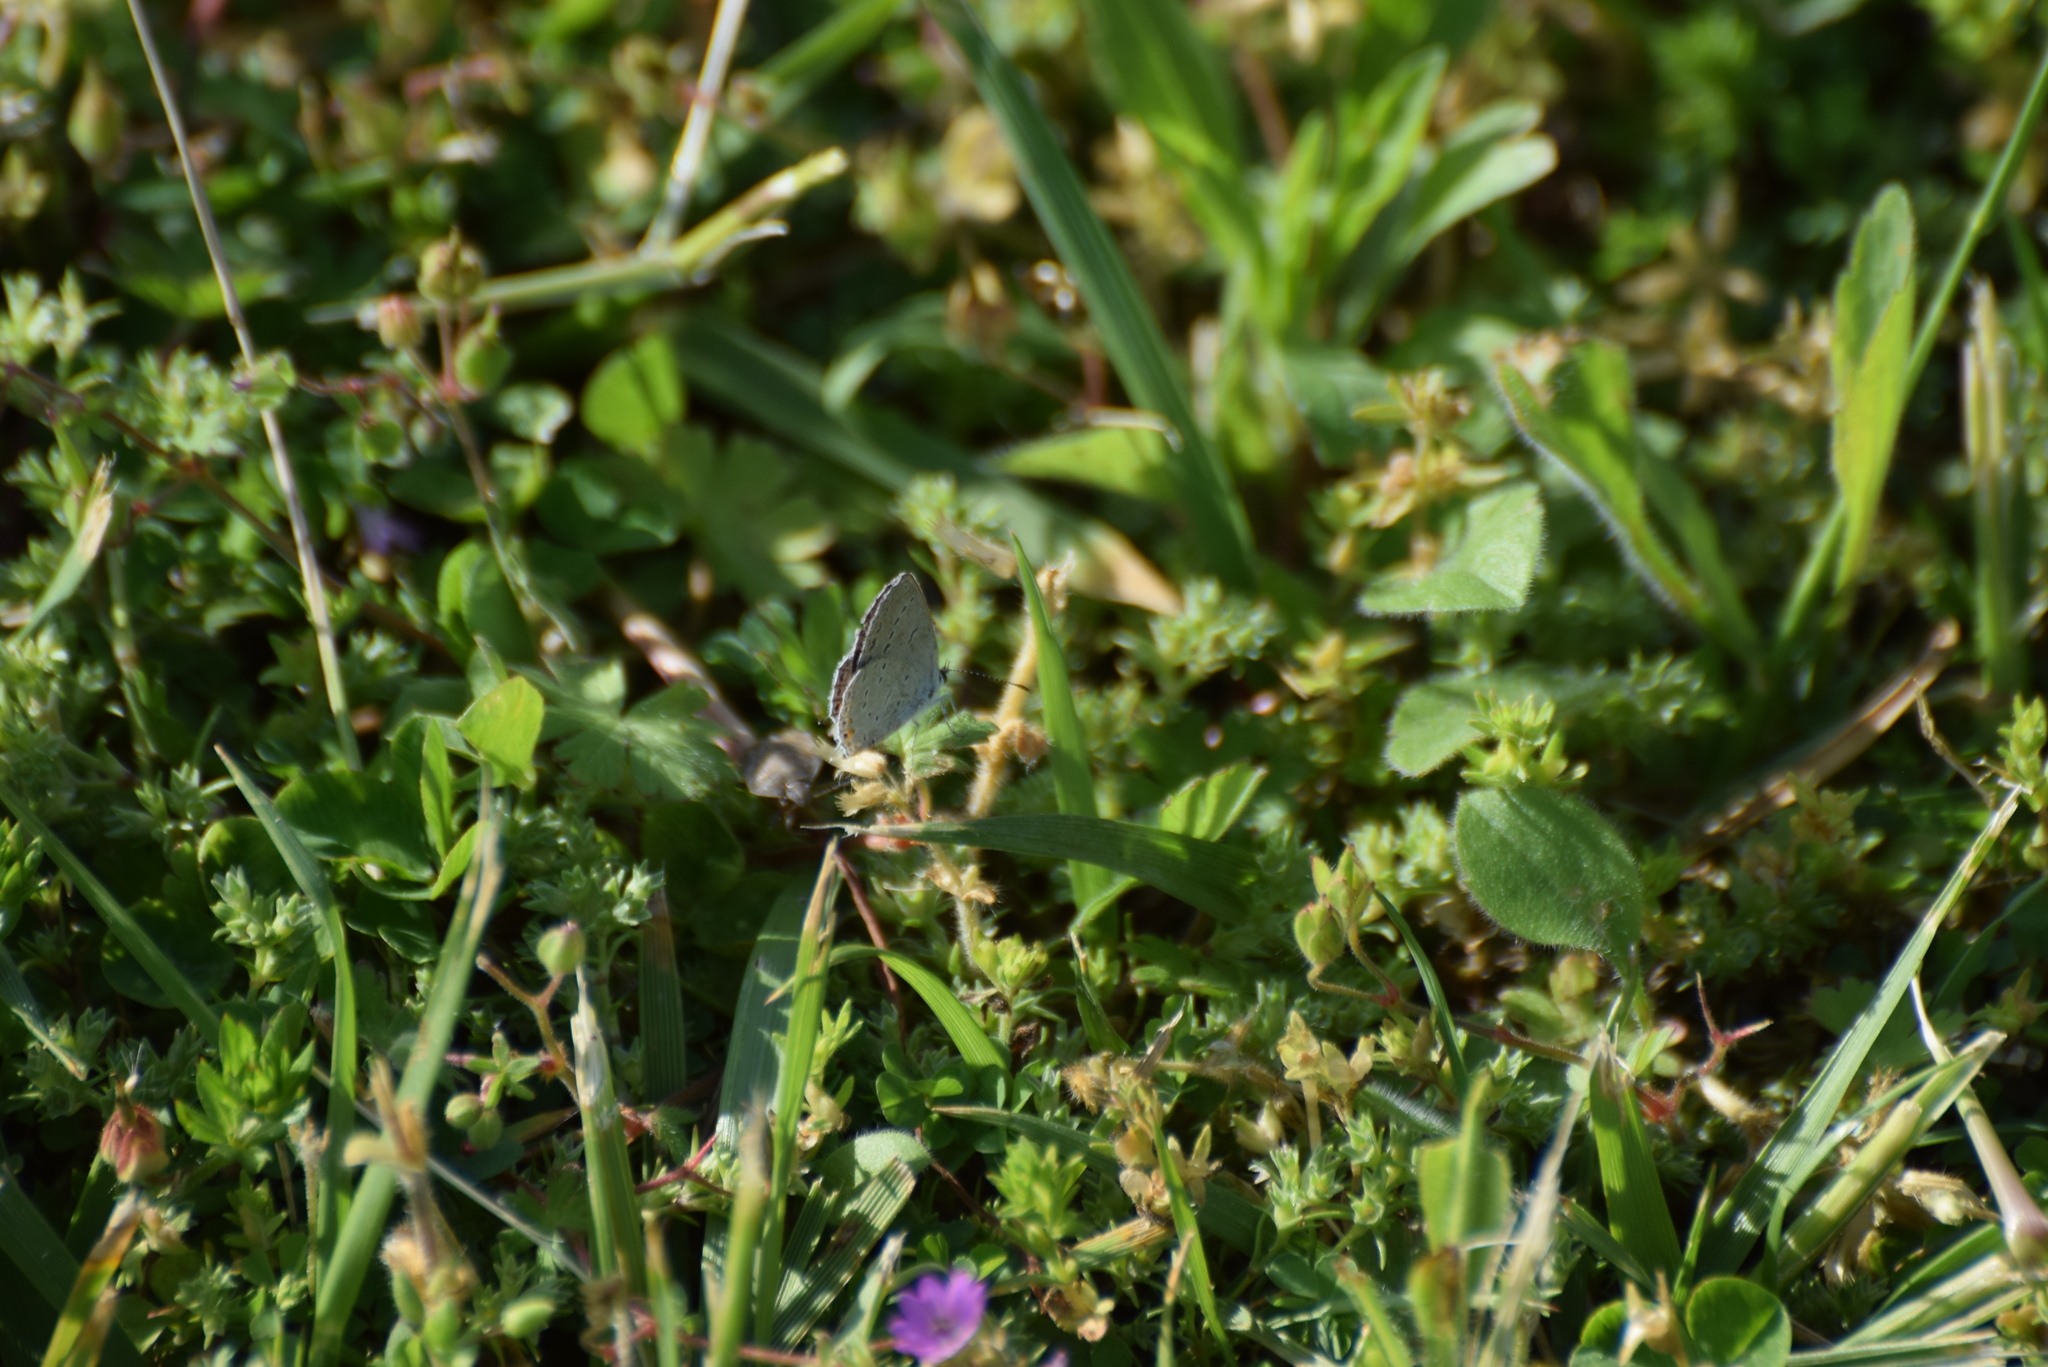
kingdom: Animalia
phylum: Arthropoda
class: Insecta
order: Lepidoptera
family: Lycaenidae
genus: Elkalyce
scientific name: Elkalyce comyntas
